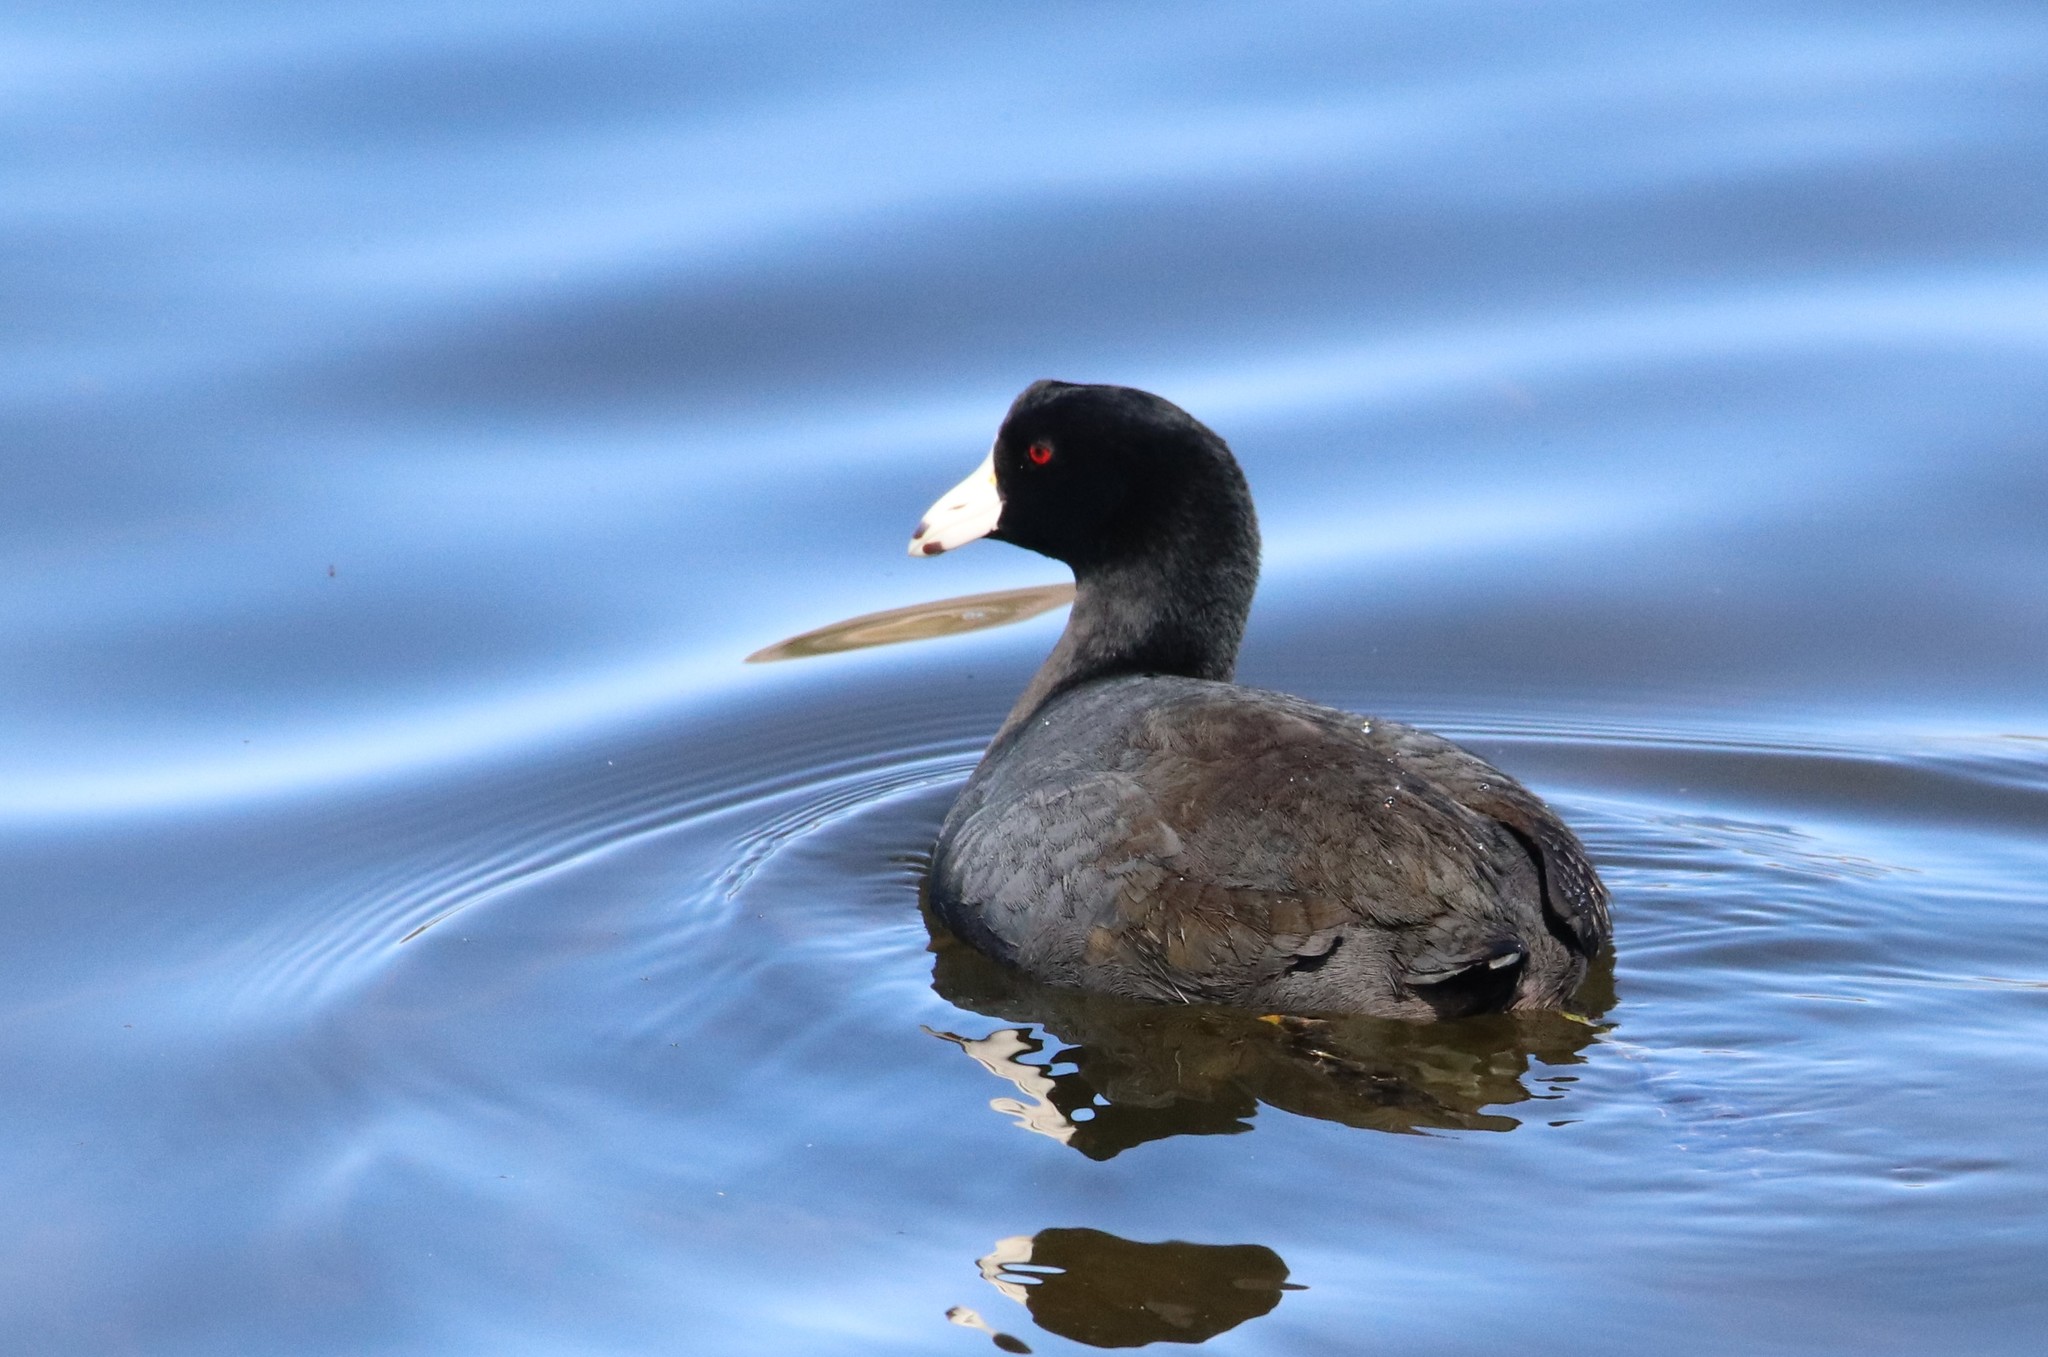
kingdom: Animalia
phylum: Chordata
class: Aves
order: Gruiformes
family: Rallidae
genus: Fulica
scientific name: Fulica americana
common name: American coot
